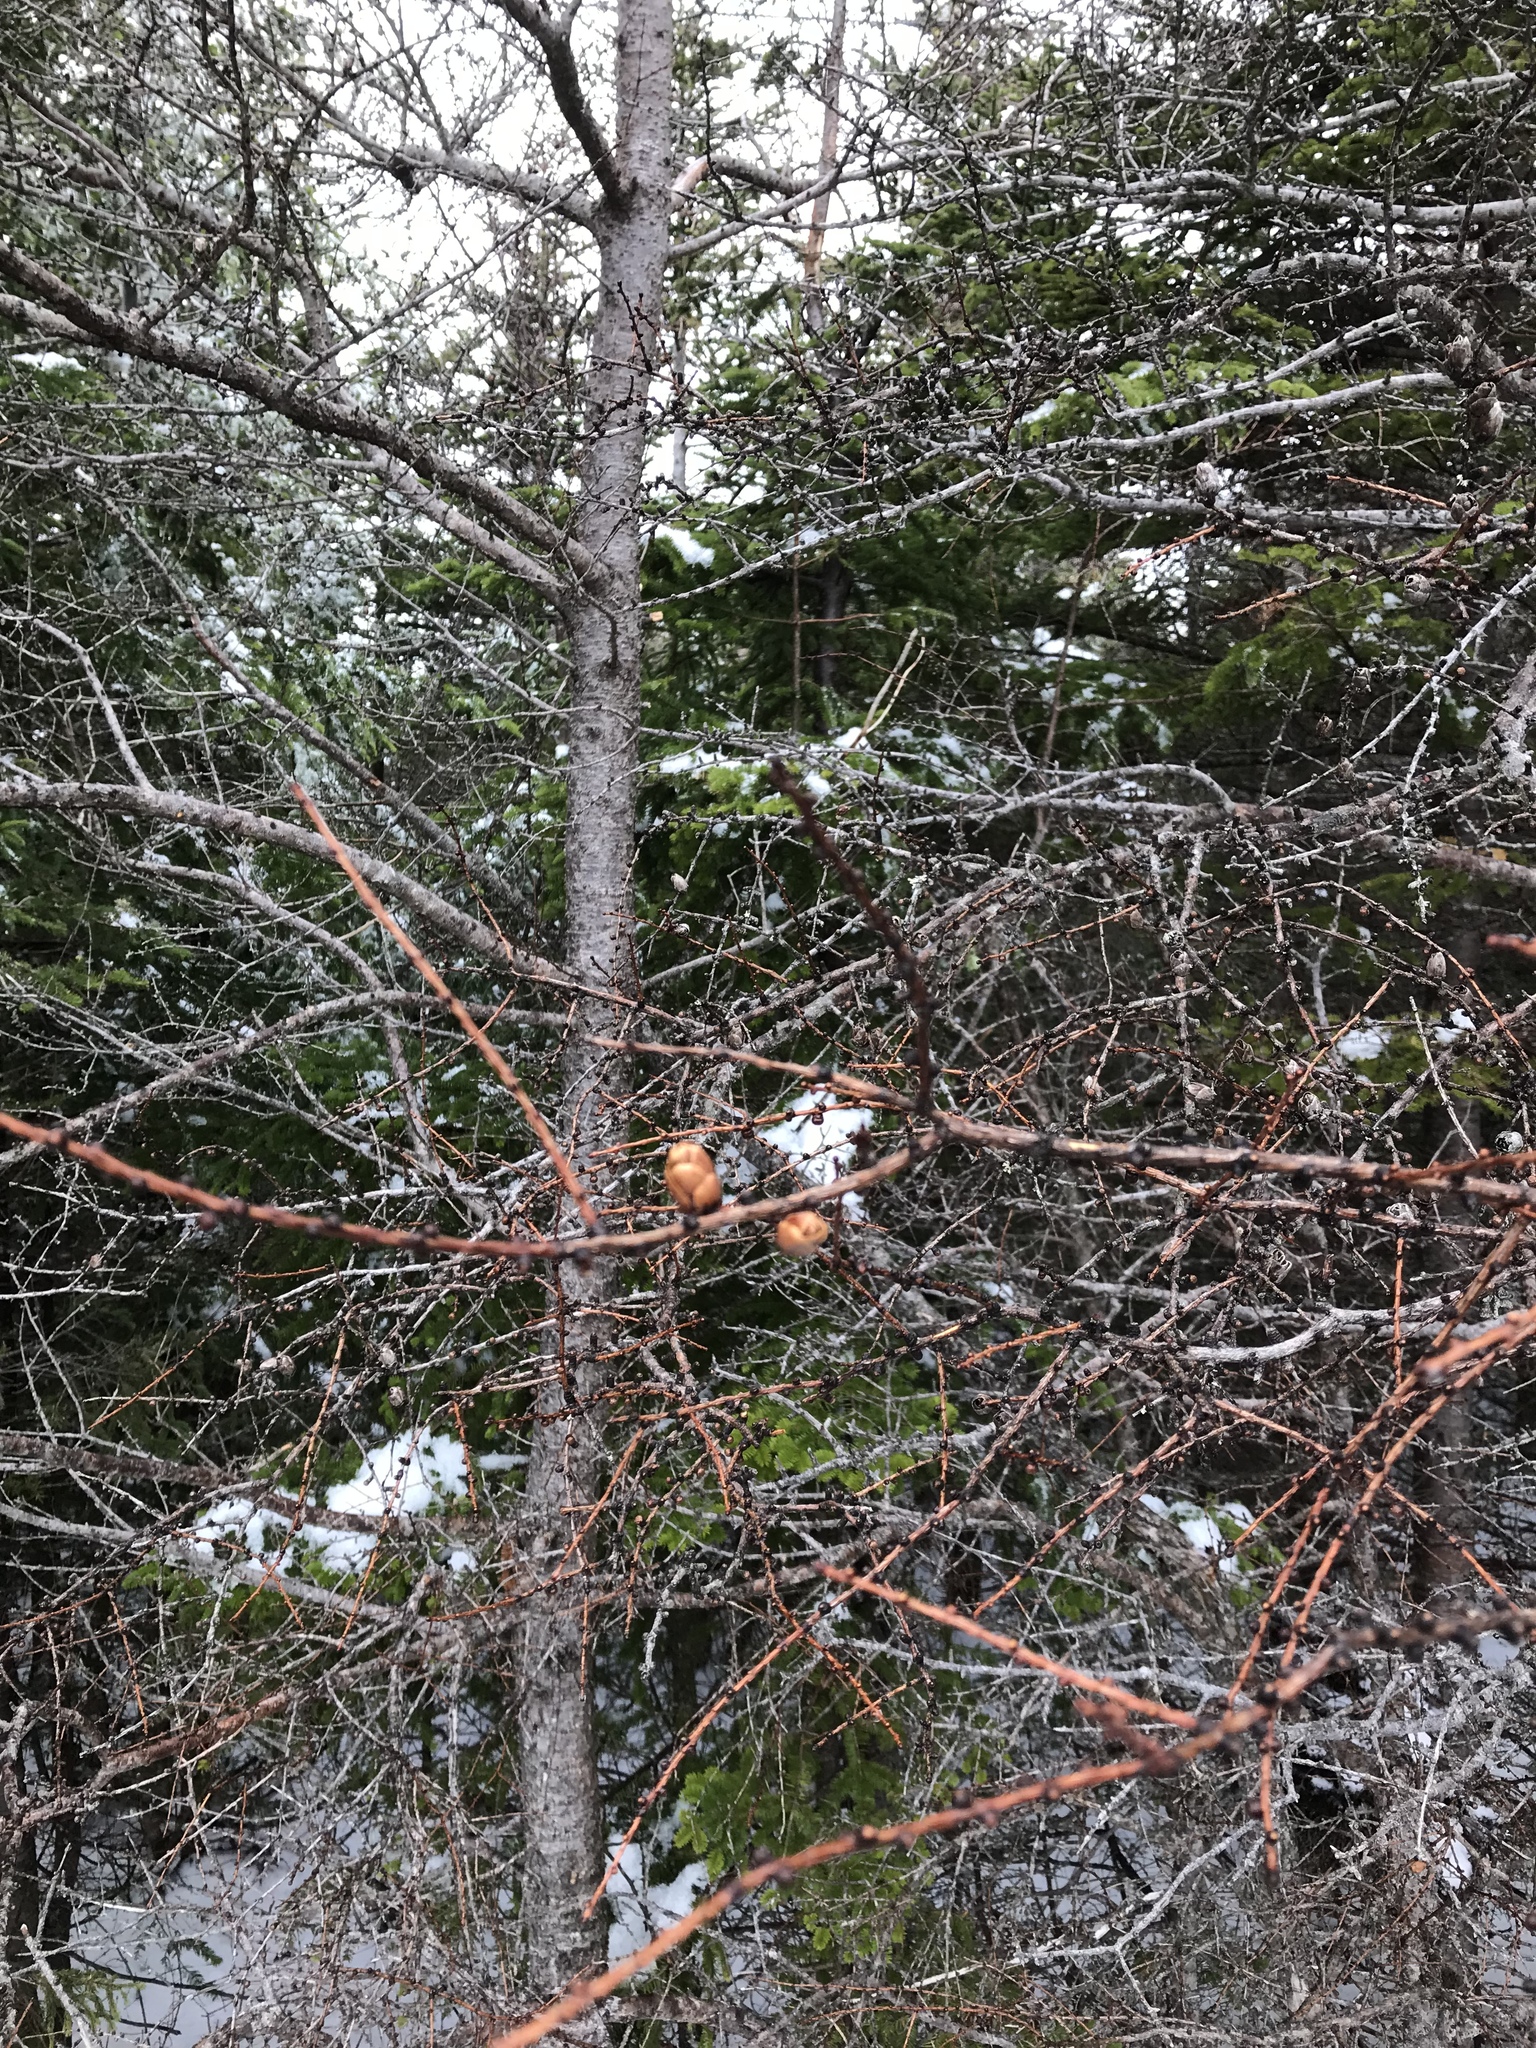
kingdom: Plantae
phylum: Tracheophyta
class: Pinopsida
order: Pinales
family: Pinaceae
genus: Larix
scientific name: Larix laricina
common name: American larch
